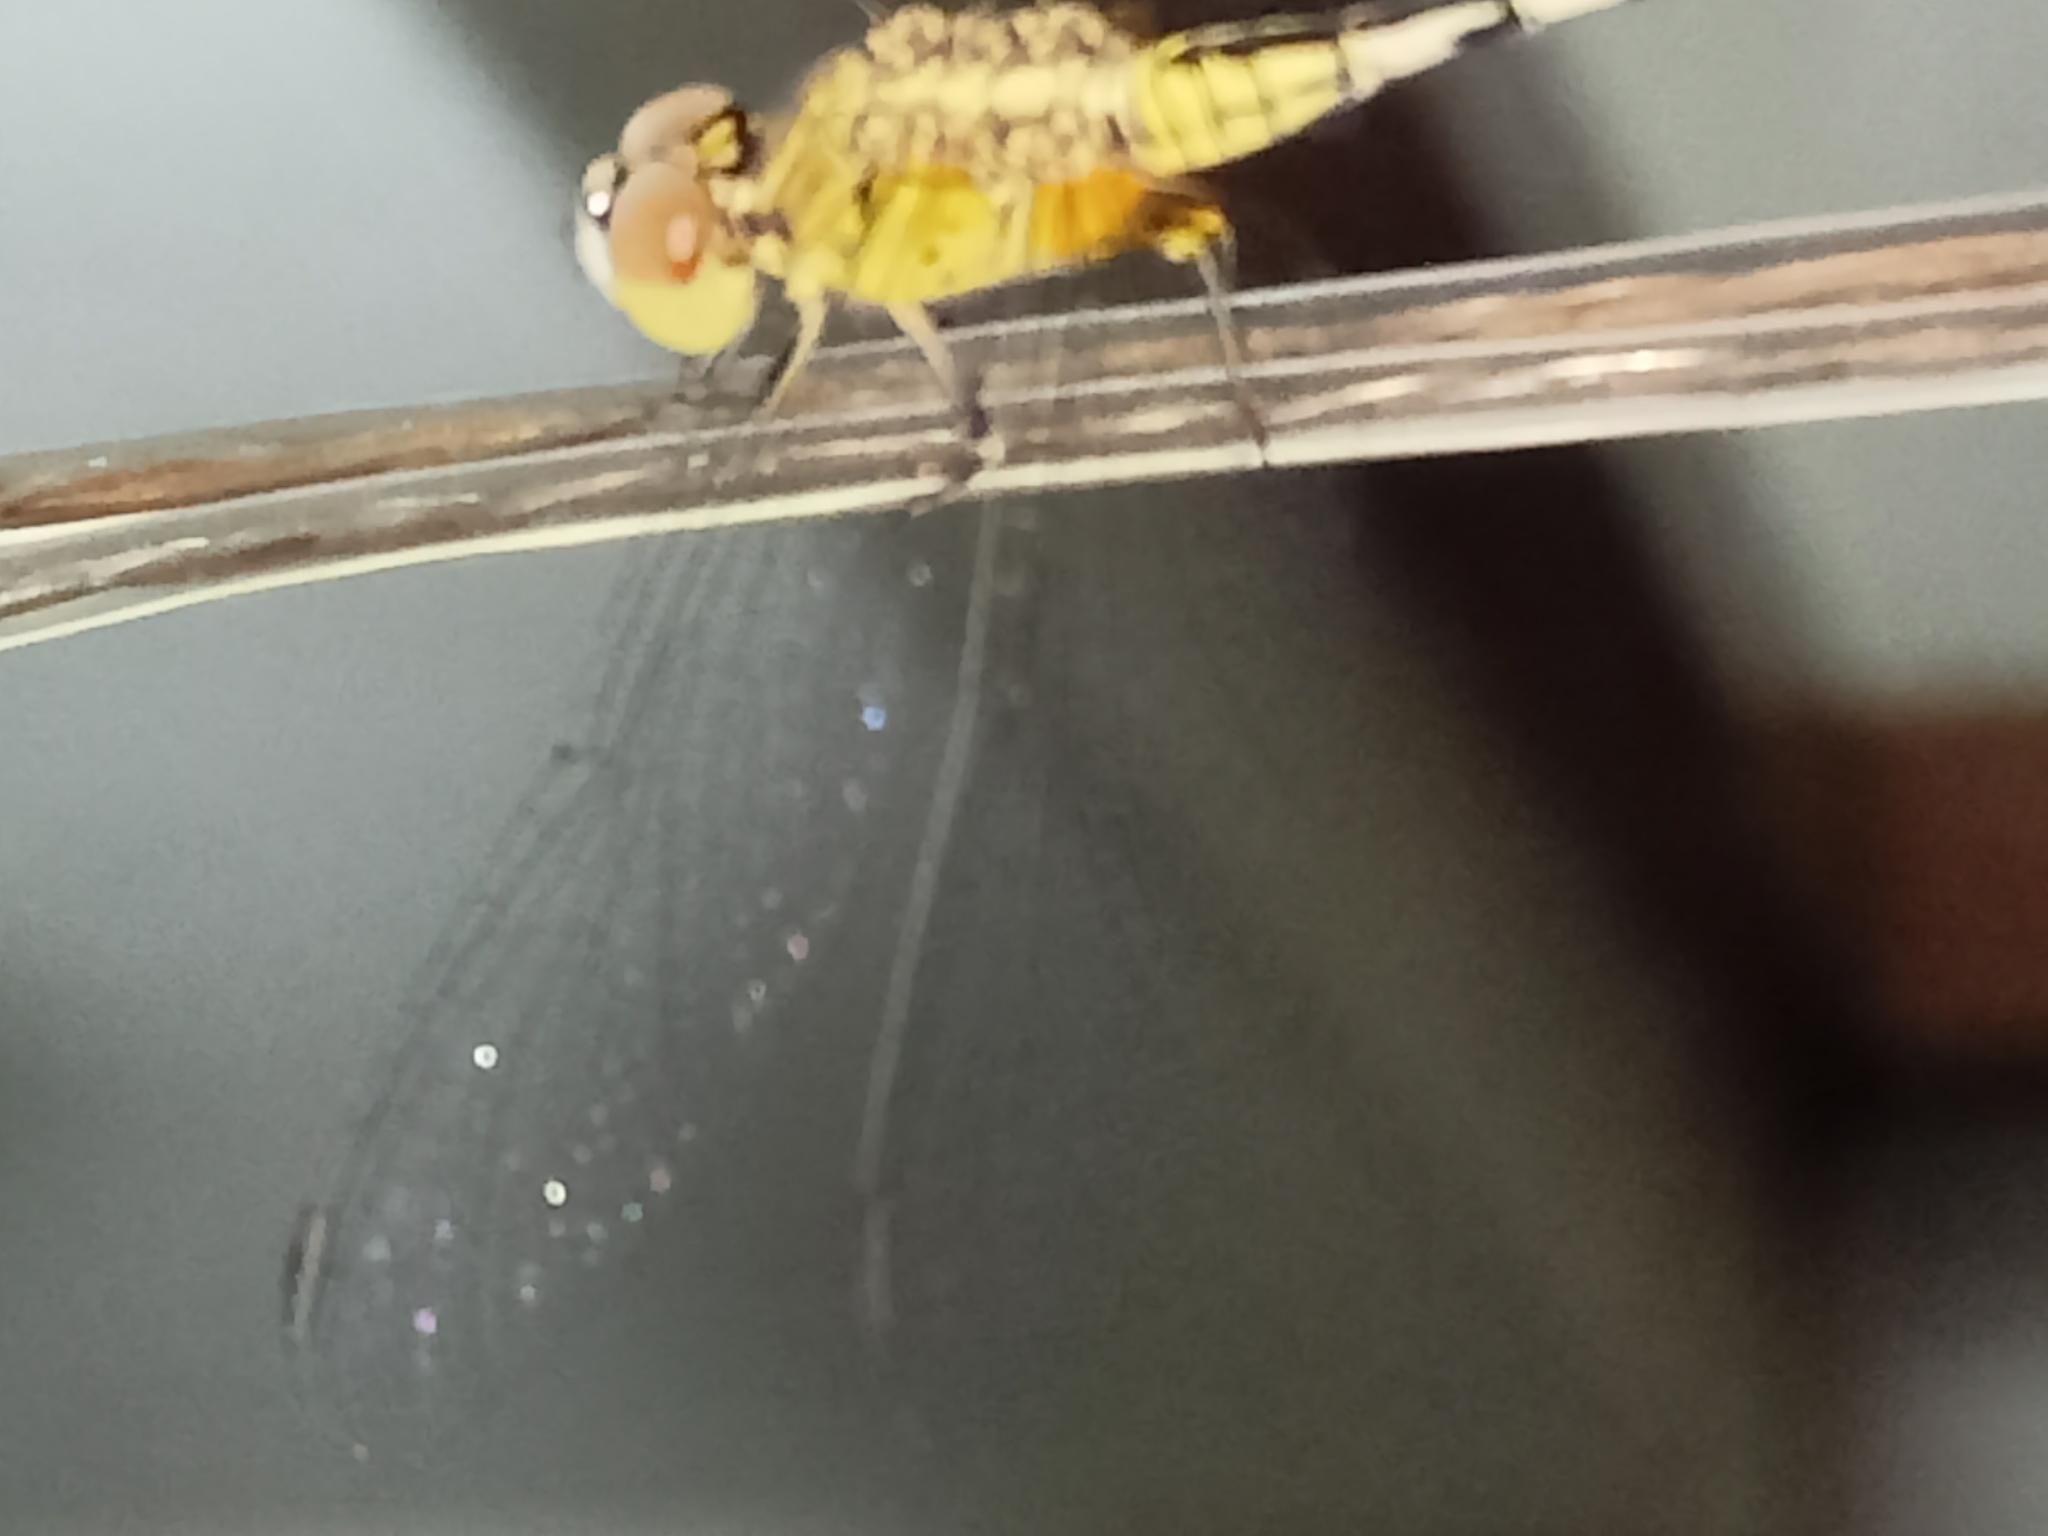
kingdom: Animalia
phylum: Arthropoda
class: Insecta
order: Odonata
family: Libellulidae
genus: Diplacodes
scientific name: Diplacodes trivialis
